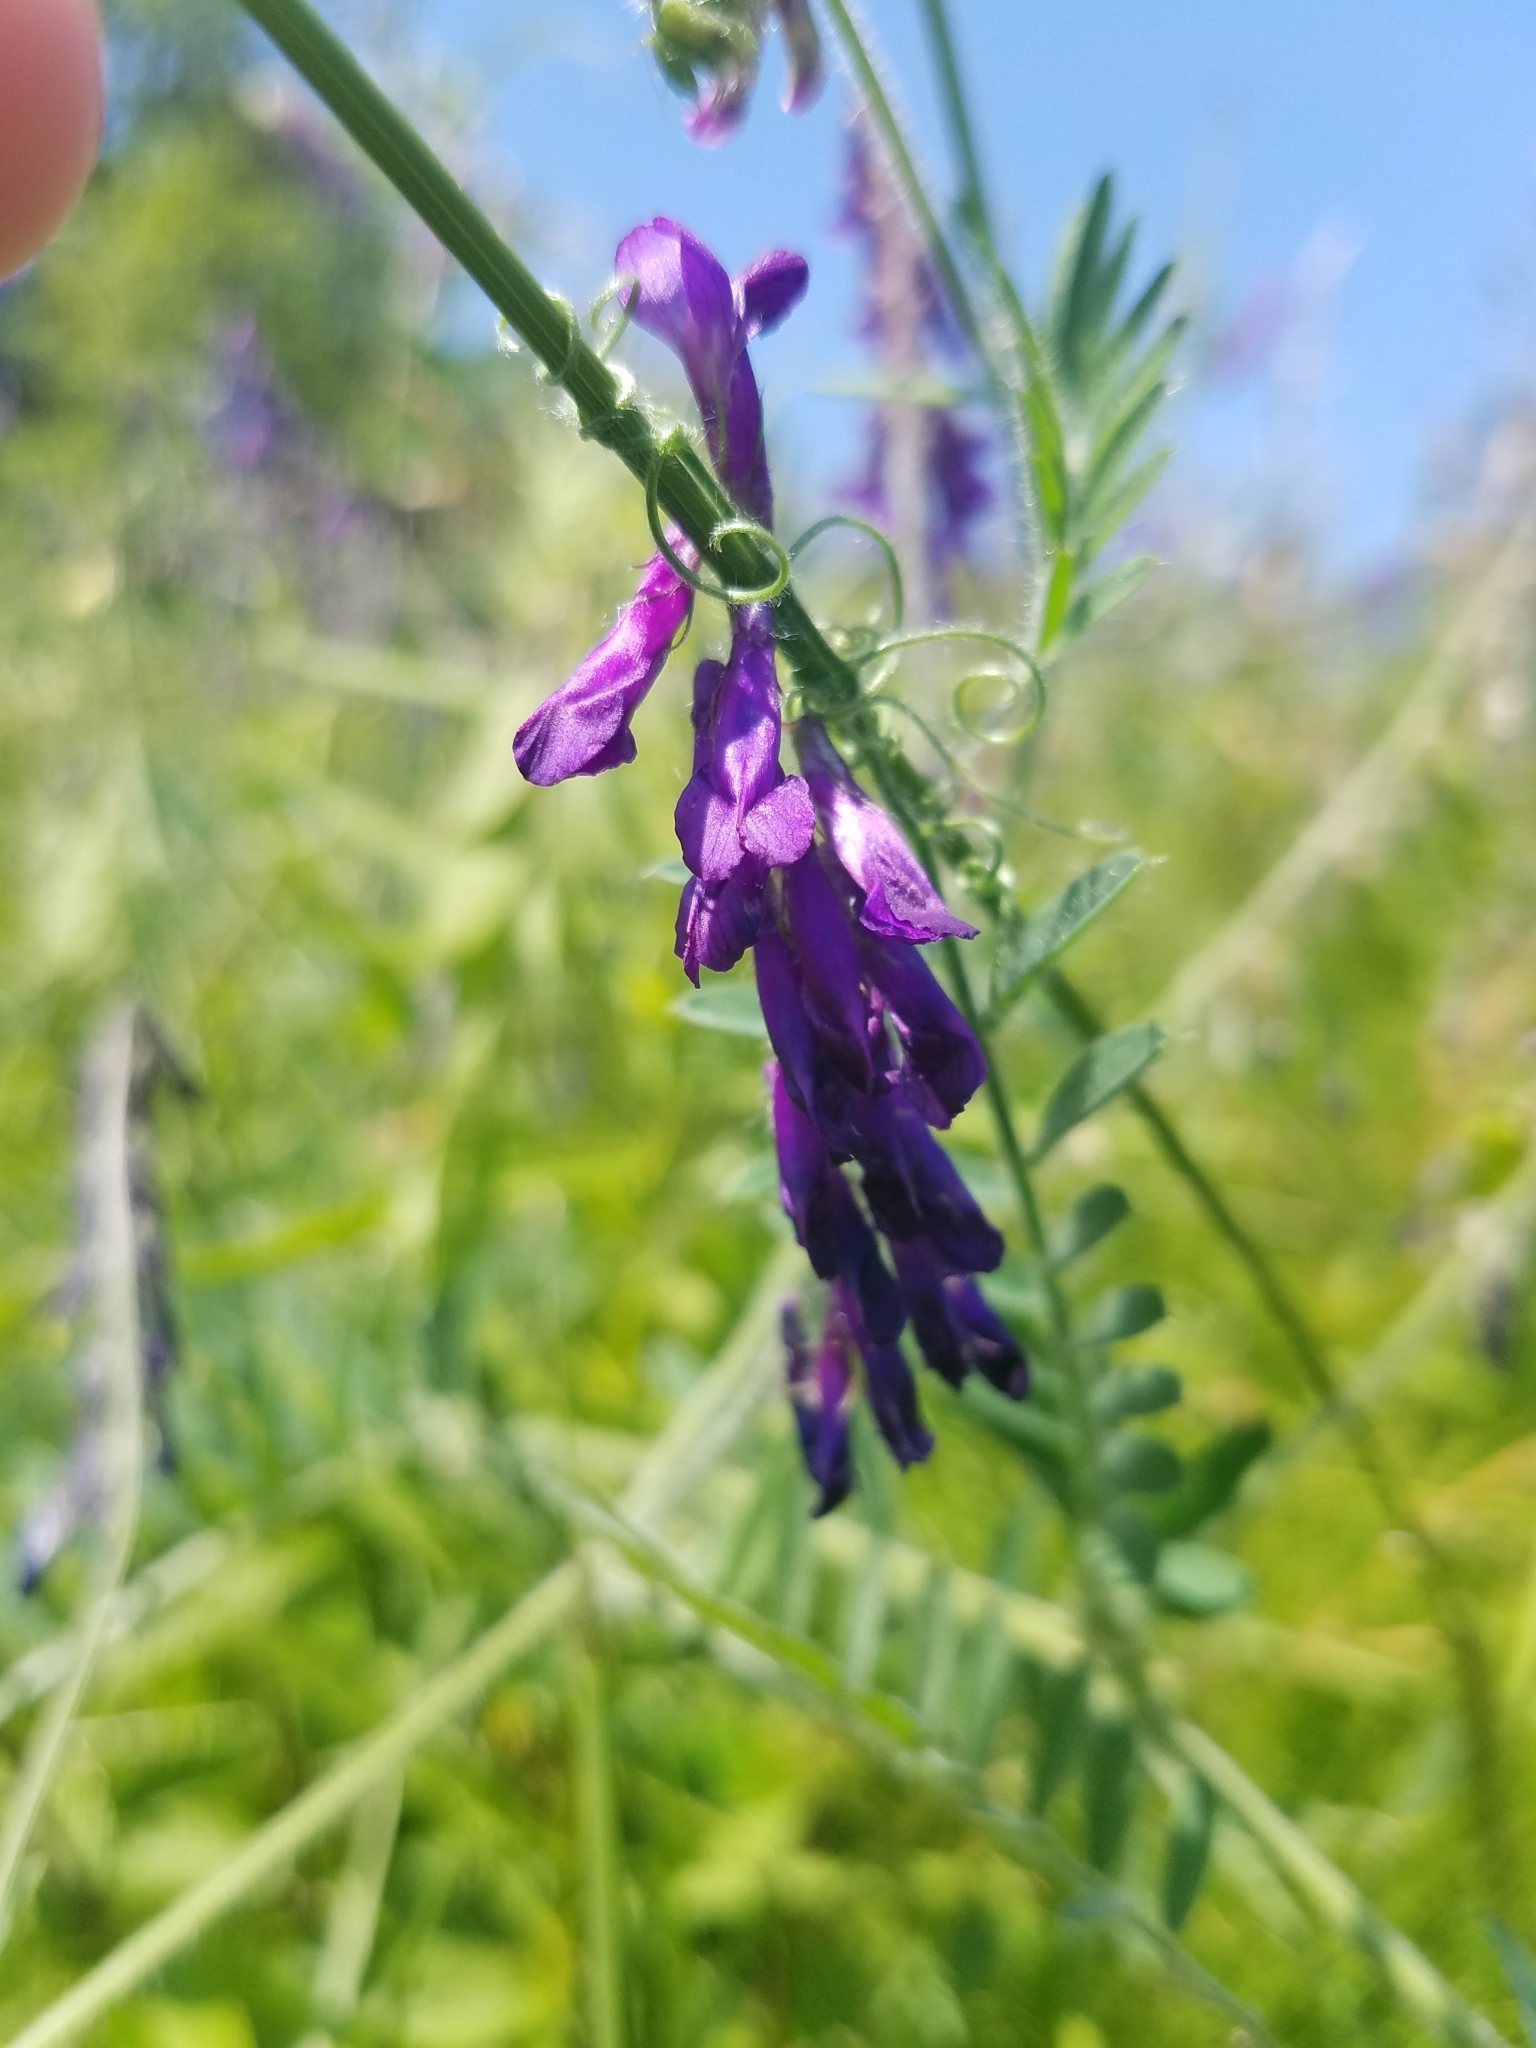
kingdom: Plantae
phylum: Tracheophyta
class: Magnoliopsida
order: Fabales
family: Fabaceae
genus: Vicia
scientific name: Vicia villosa
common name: Fodder vetch
